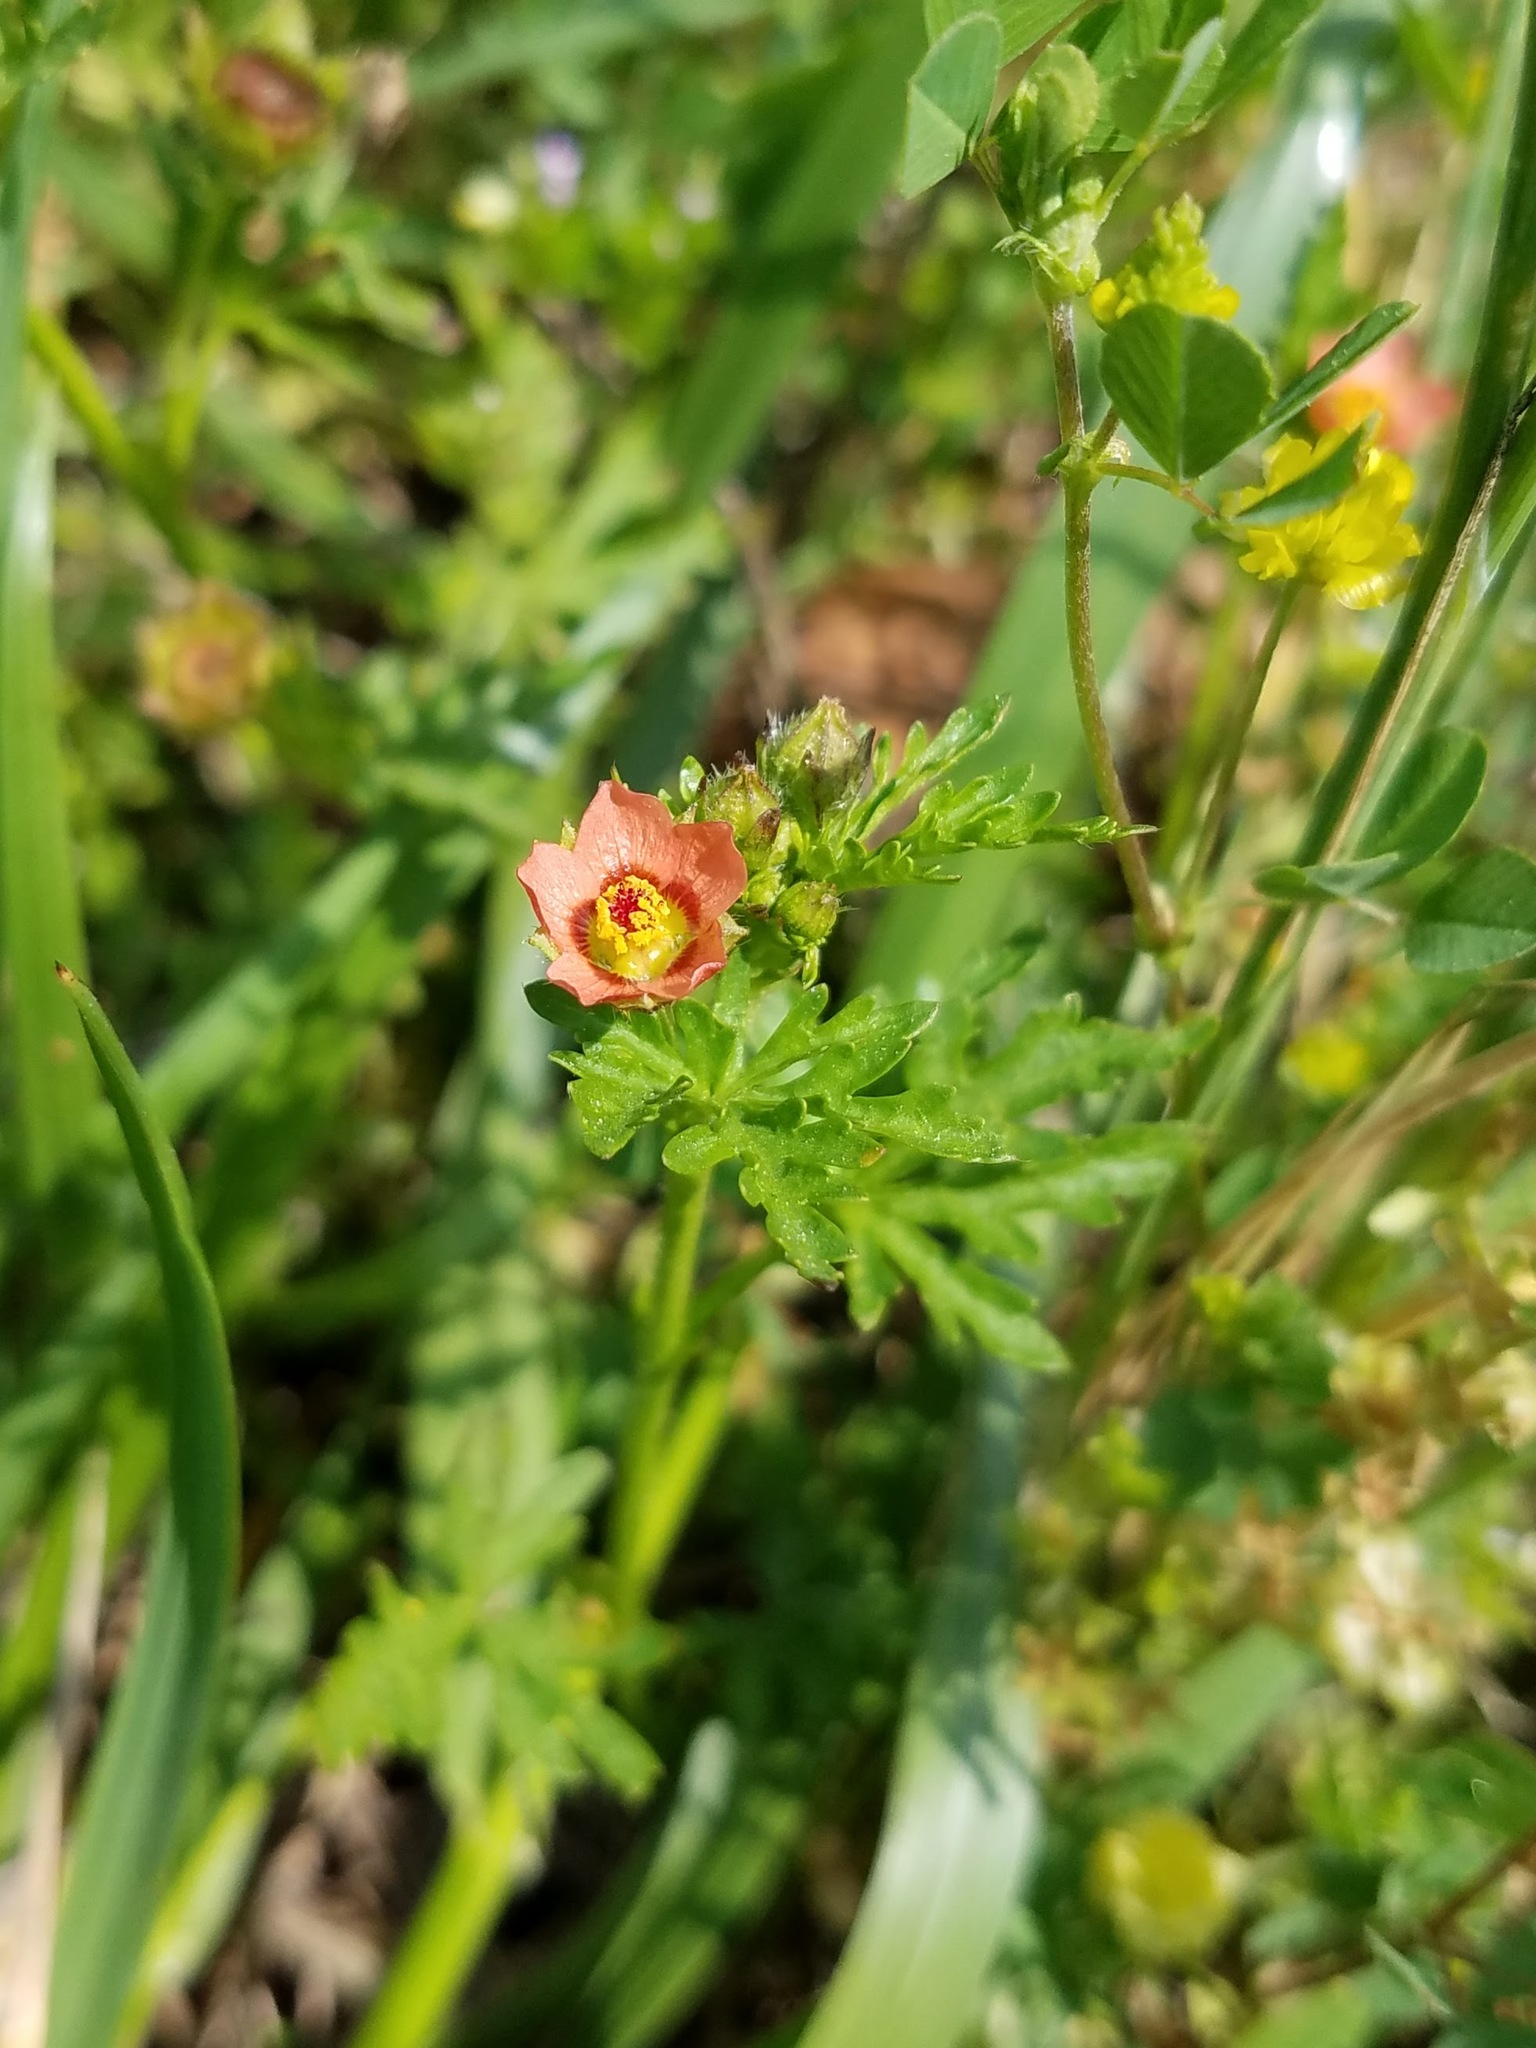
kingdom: Plantae
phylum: Tracheophyta
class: Magnoliopsida
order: Malvales
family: Malvaceae
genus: Modiola
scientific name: Modiola caroliniana
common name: Carolina bristlemallow
